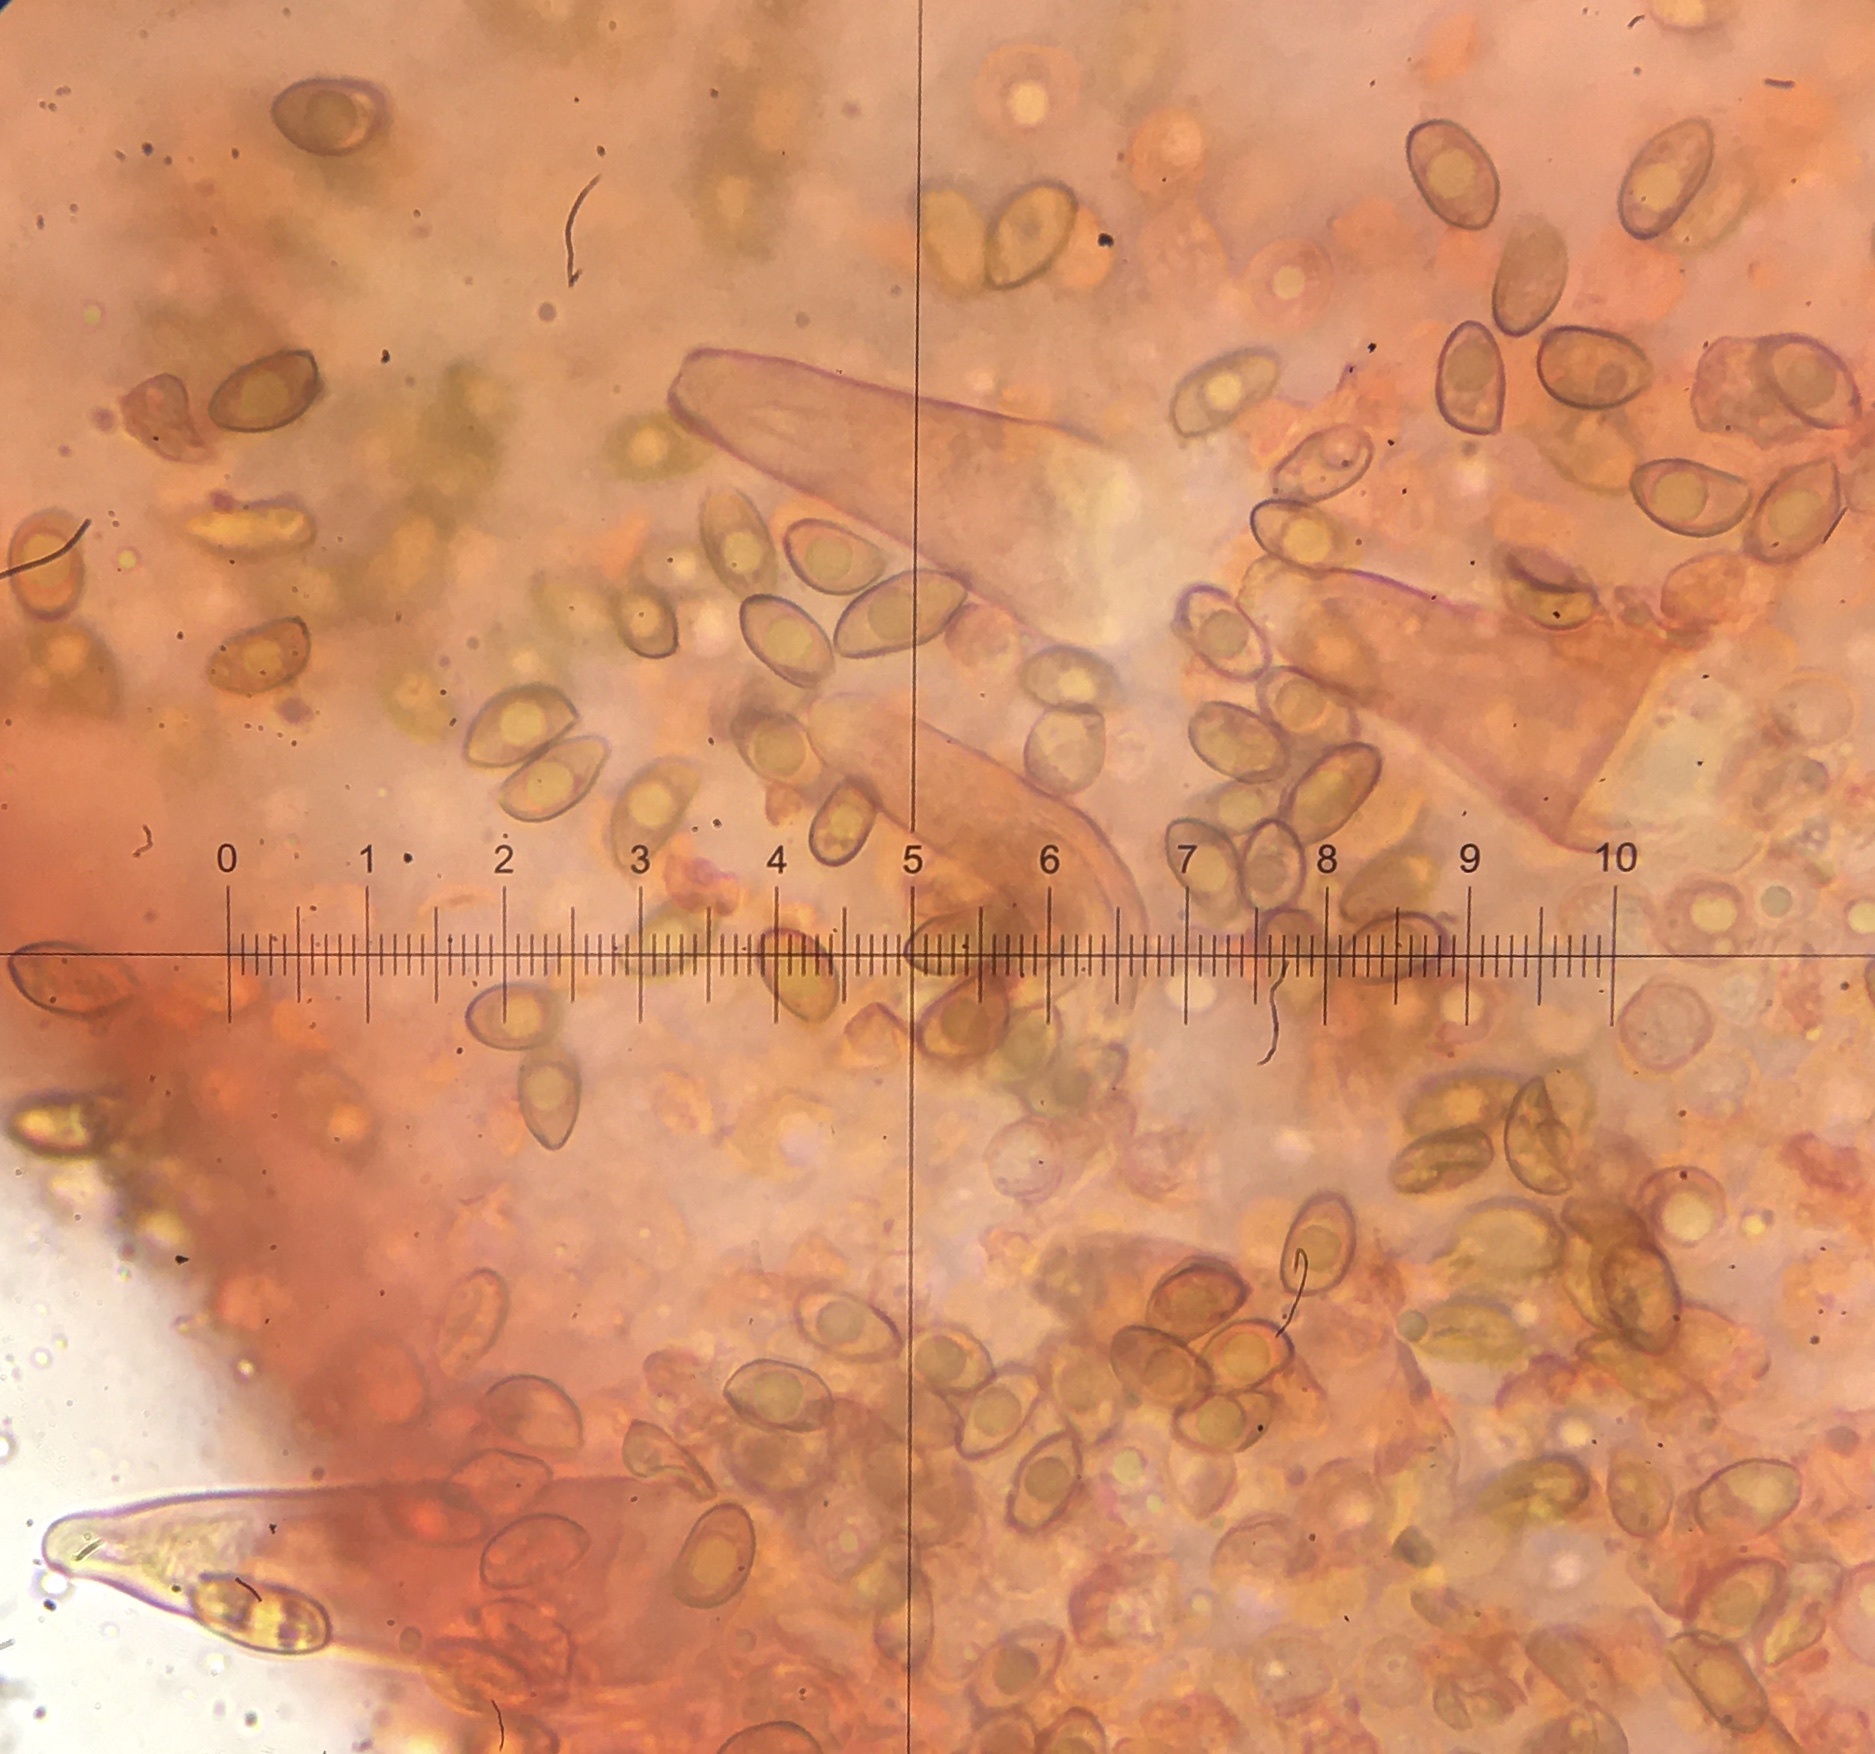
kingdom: Fungi
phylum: Basidiomycota
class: Agaricomycetes
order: Agaricales
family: Inocybaceae
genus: Inocybe
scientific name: Inocybe sindonia
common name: Beige fibrecap
